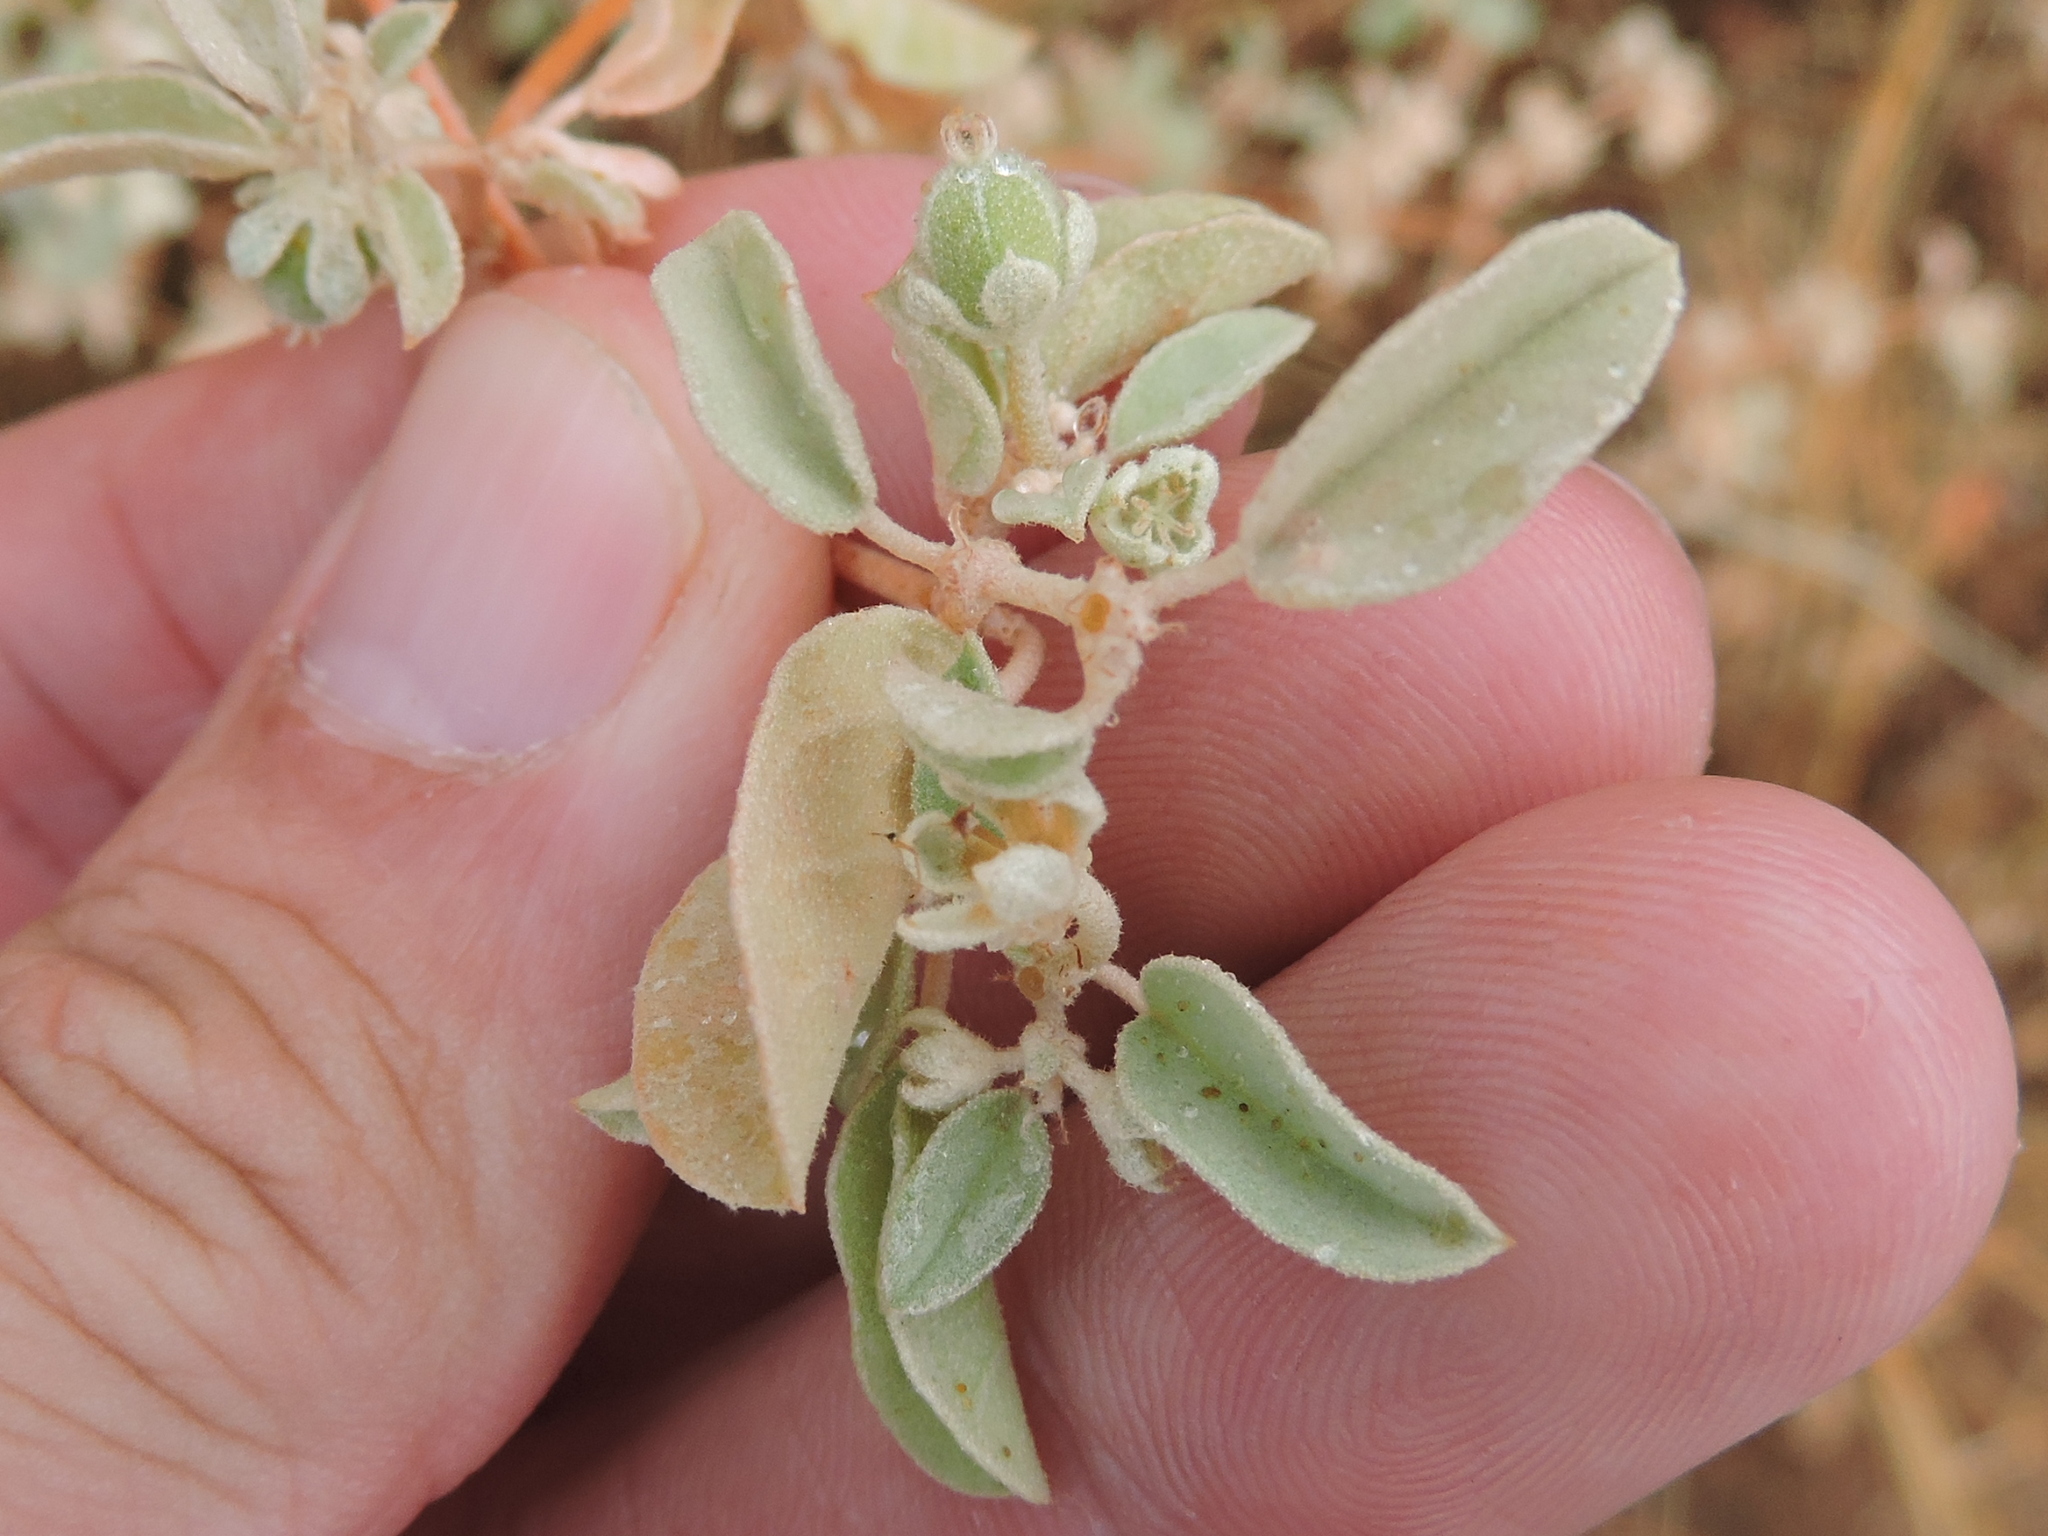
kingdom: Plantae
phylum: Tracheophyta
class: Magnoliopsida
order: Malpighiales
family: Euphorbiaceae
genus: Croton
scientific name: Croton lindheimerianus
